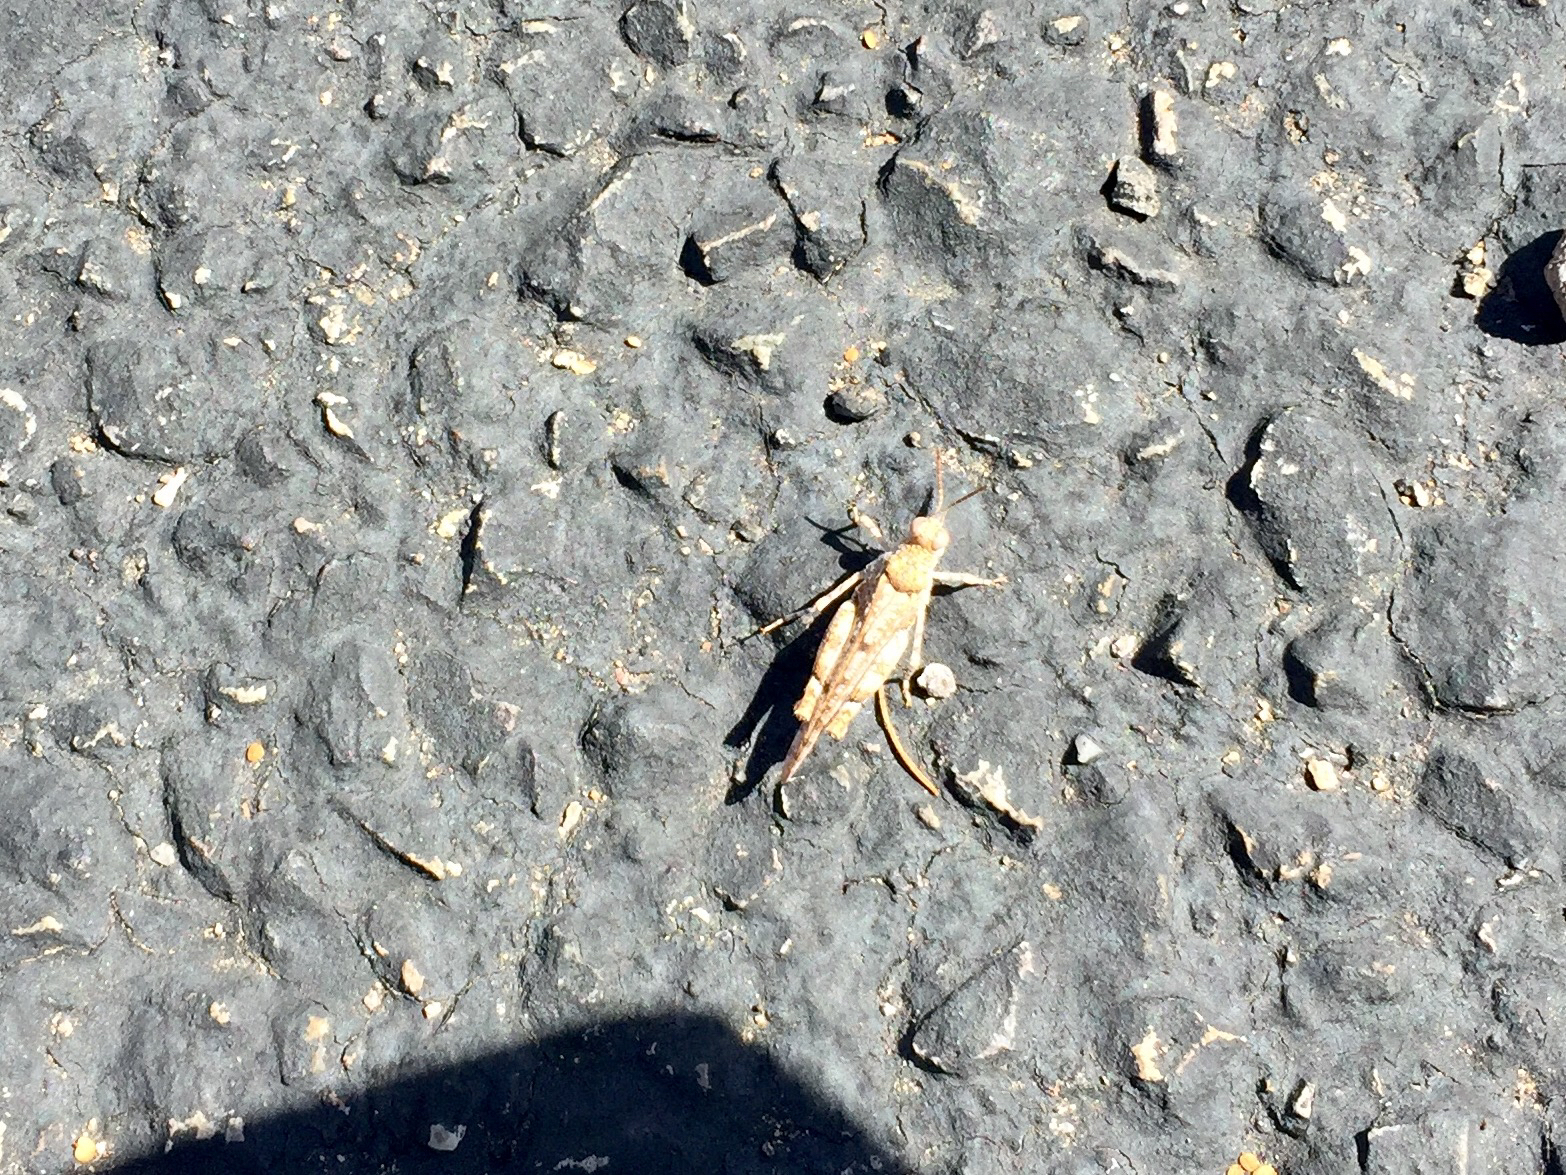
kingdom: Animalia
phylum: Arthropoda
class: Insecta
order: Orthoptera
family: Acrididae
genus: Cibolacris
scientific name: Cibolacris parviceps
